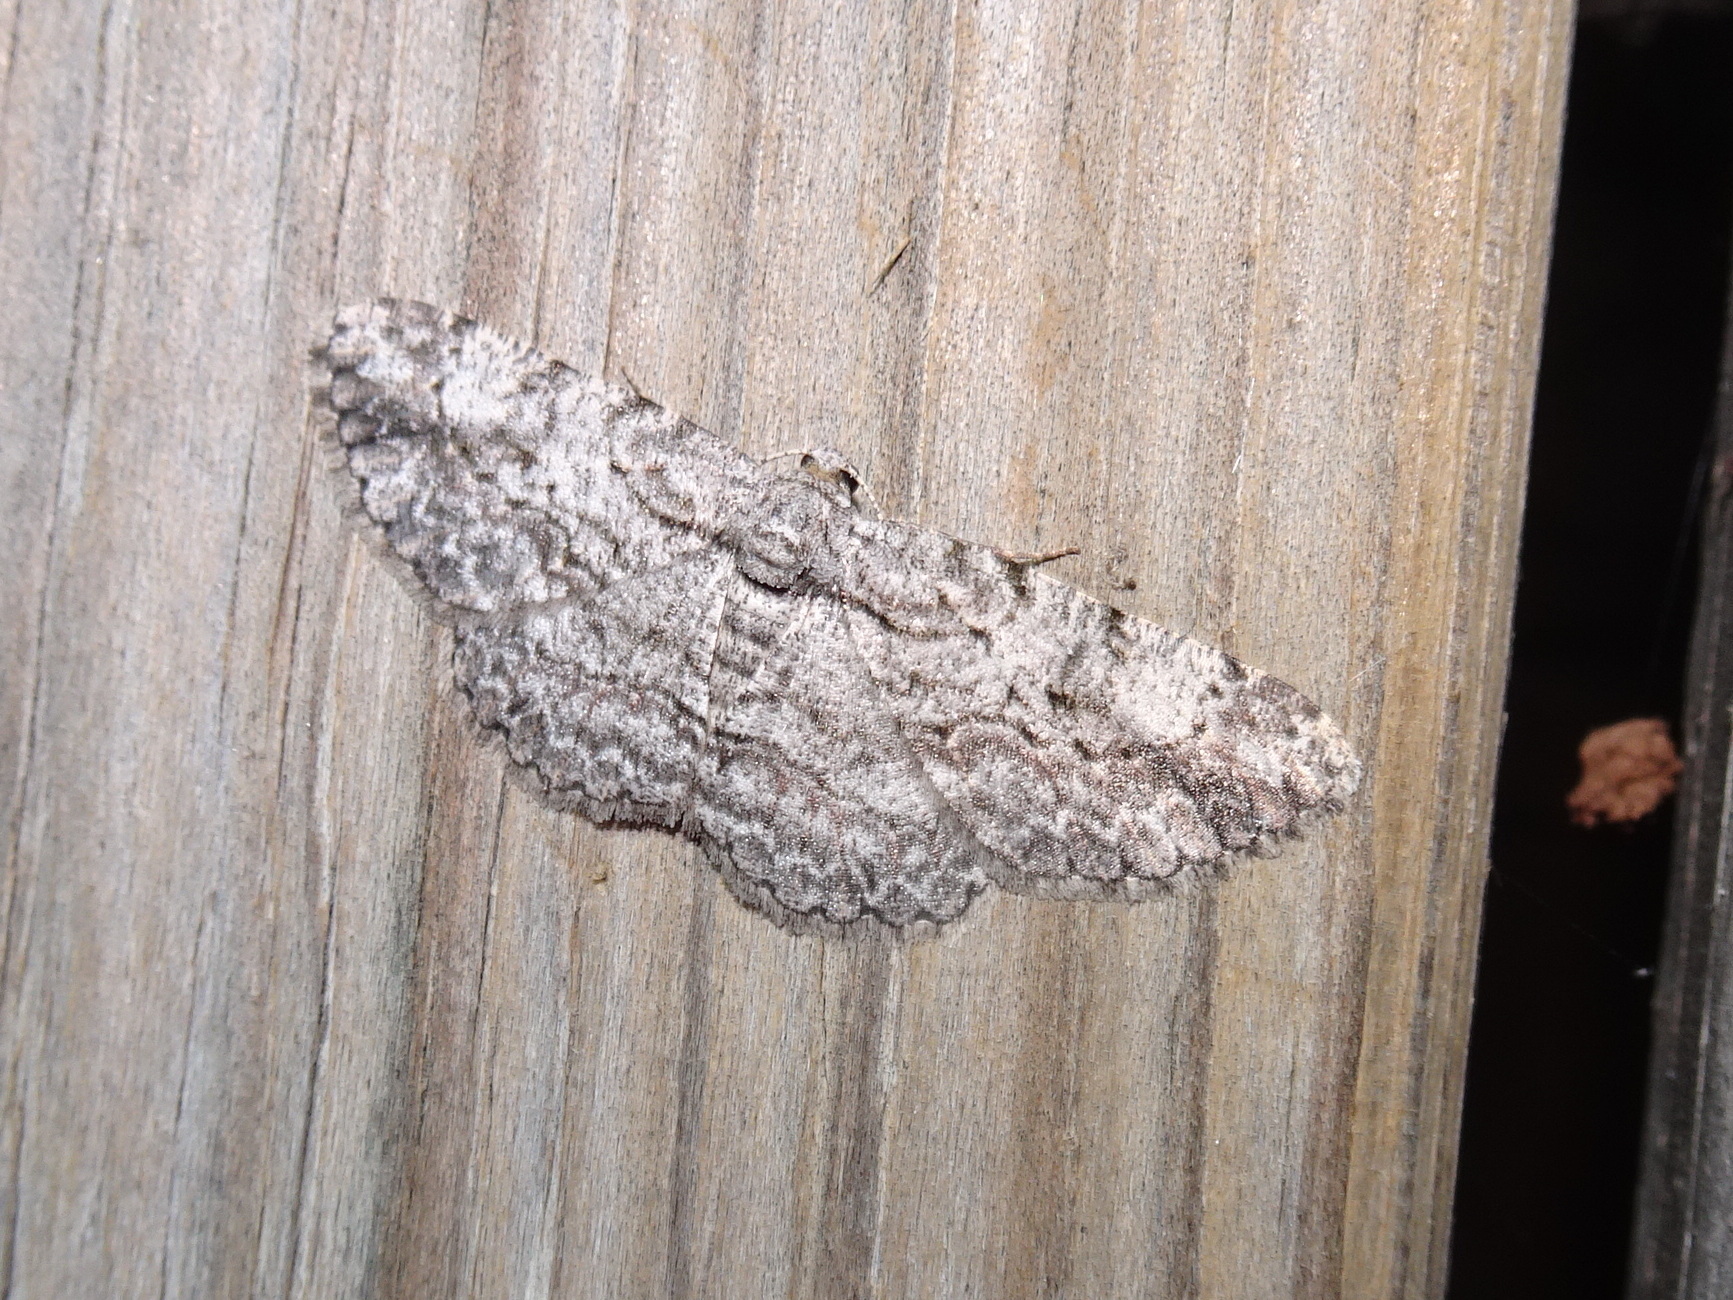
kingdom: Animalia
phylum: Arthropoda
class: Insecta
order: Lepidoptera
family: Geometridae
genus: Anavitrinella
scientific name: Anavitrinella pampinaria
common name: Common gray
